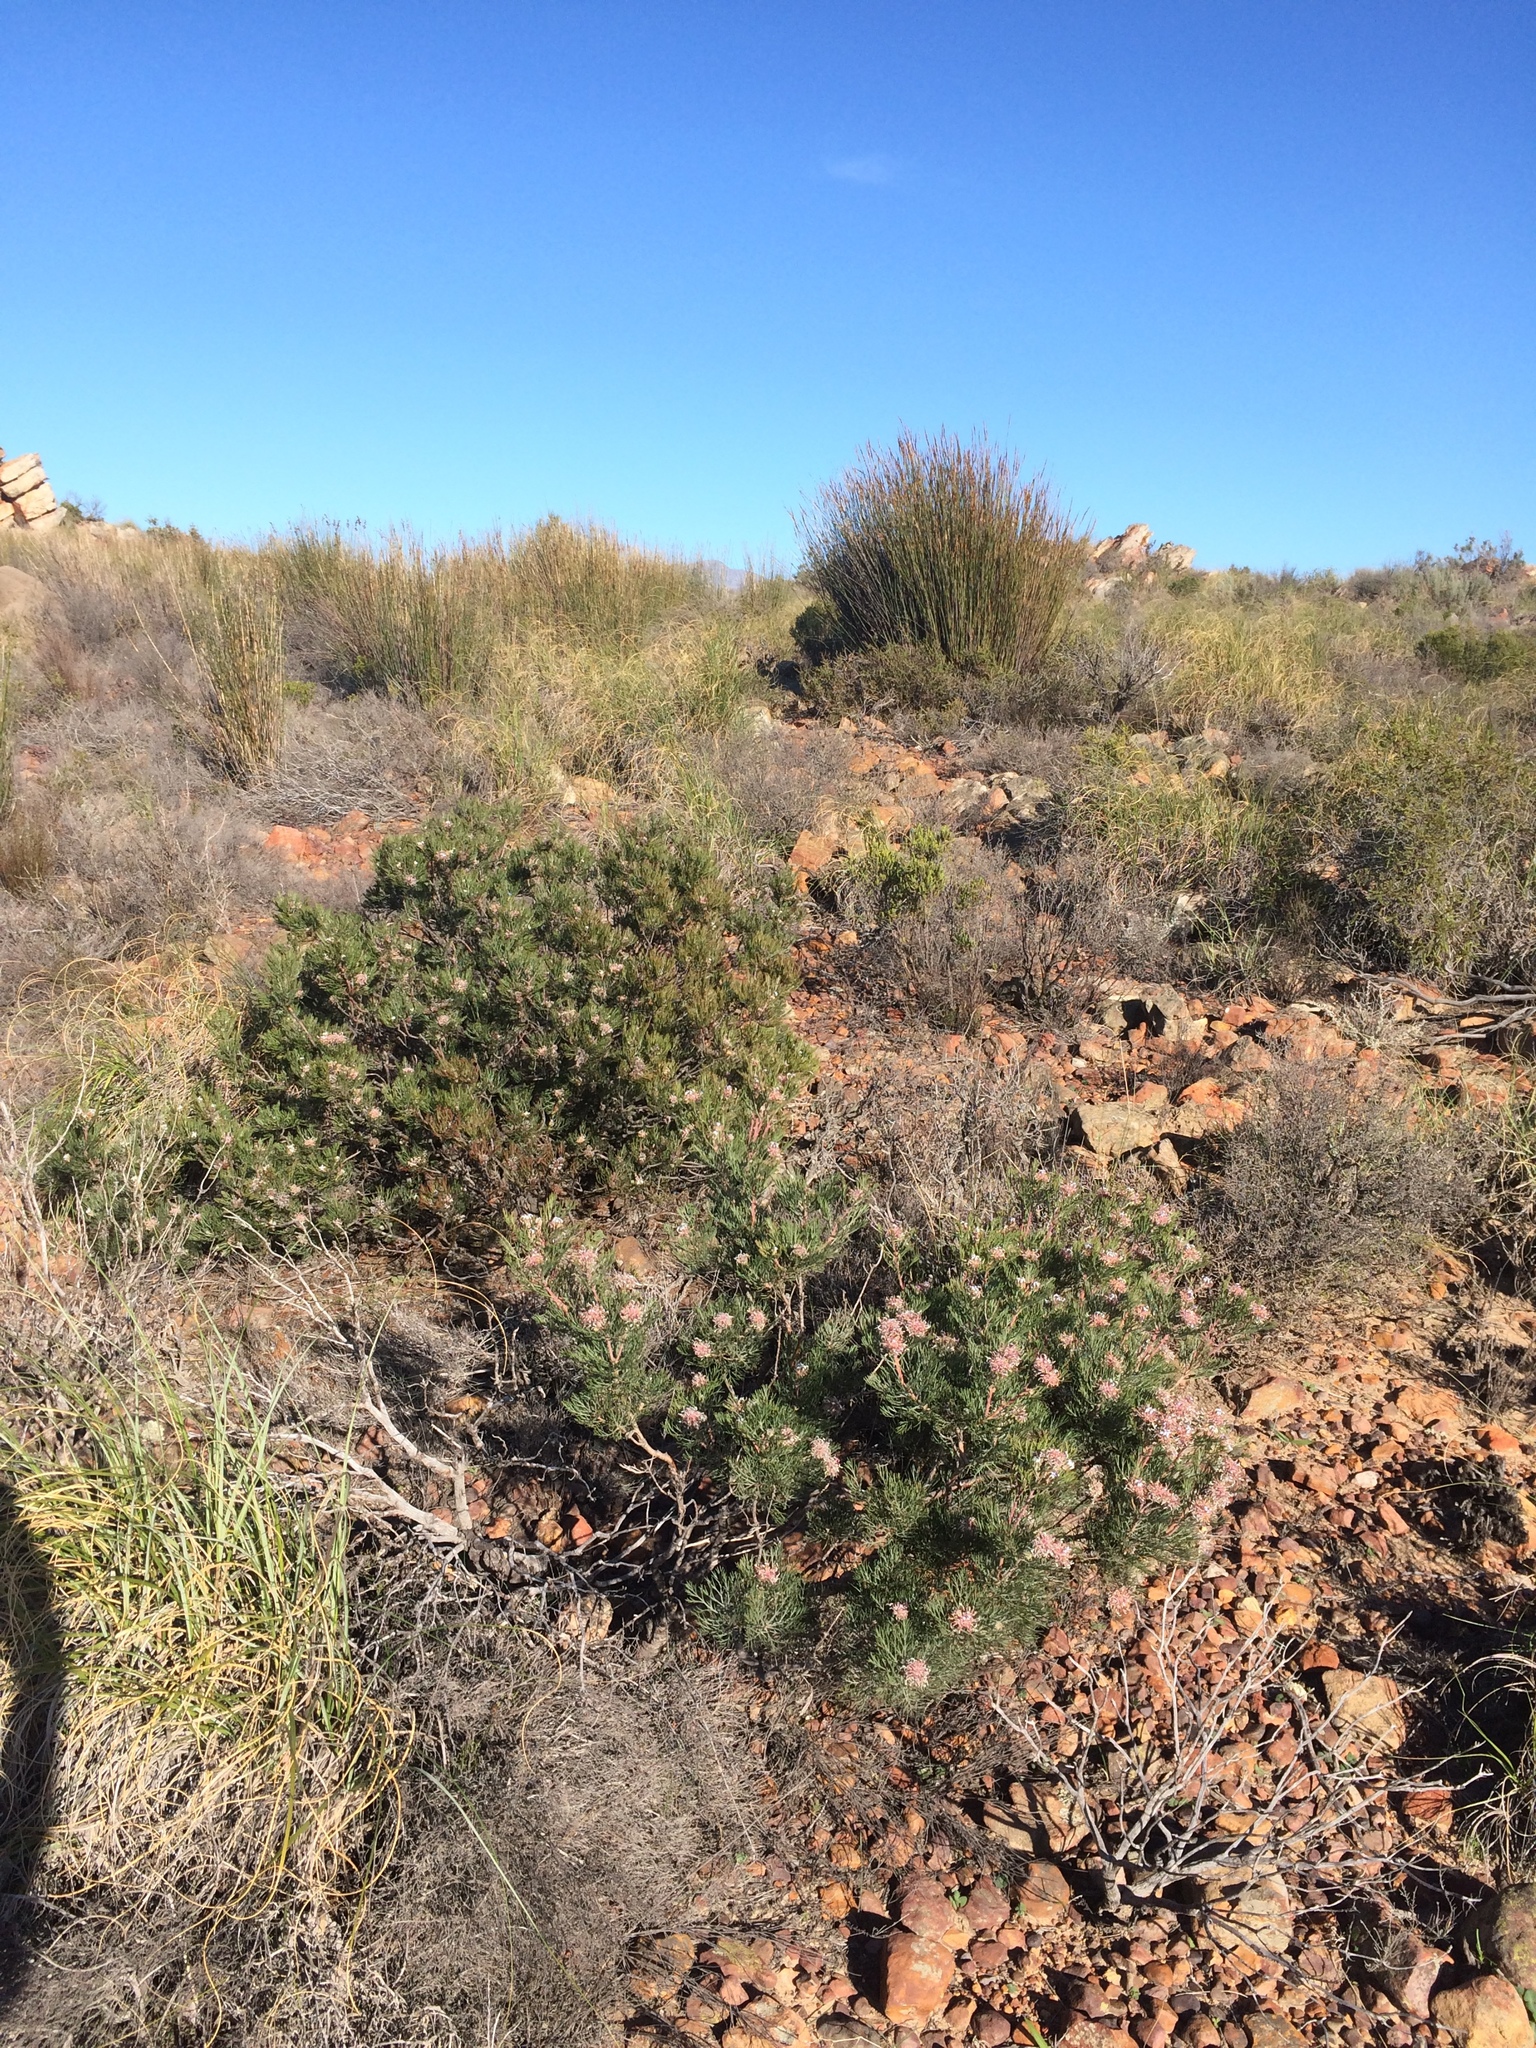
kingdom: Plantae
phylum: Tracheophyta
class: Magnoliopsida
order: Proteales
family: Proteaceae
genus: Serruria
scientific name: Serruria acrocarpa
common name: Common rootstock spiderhead
